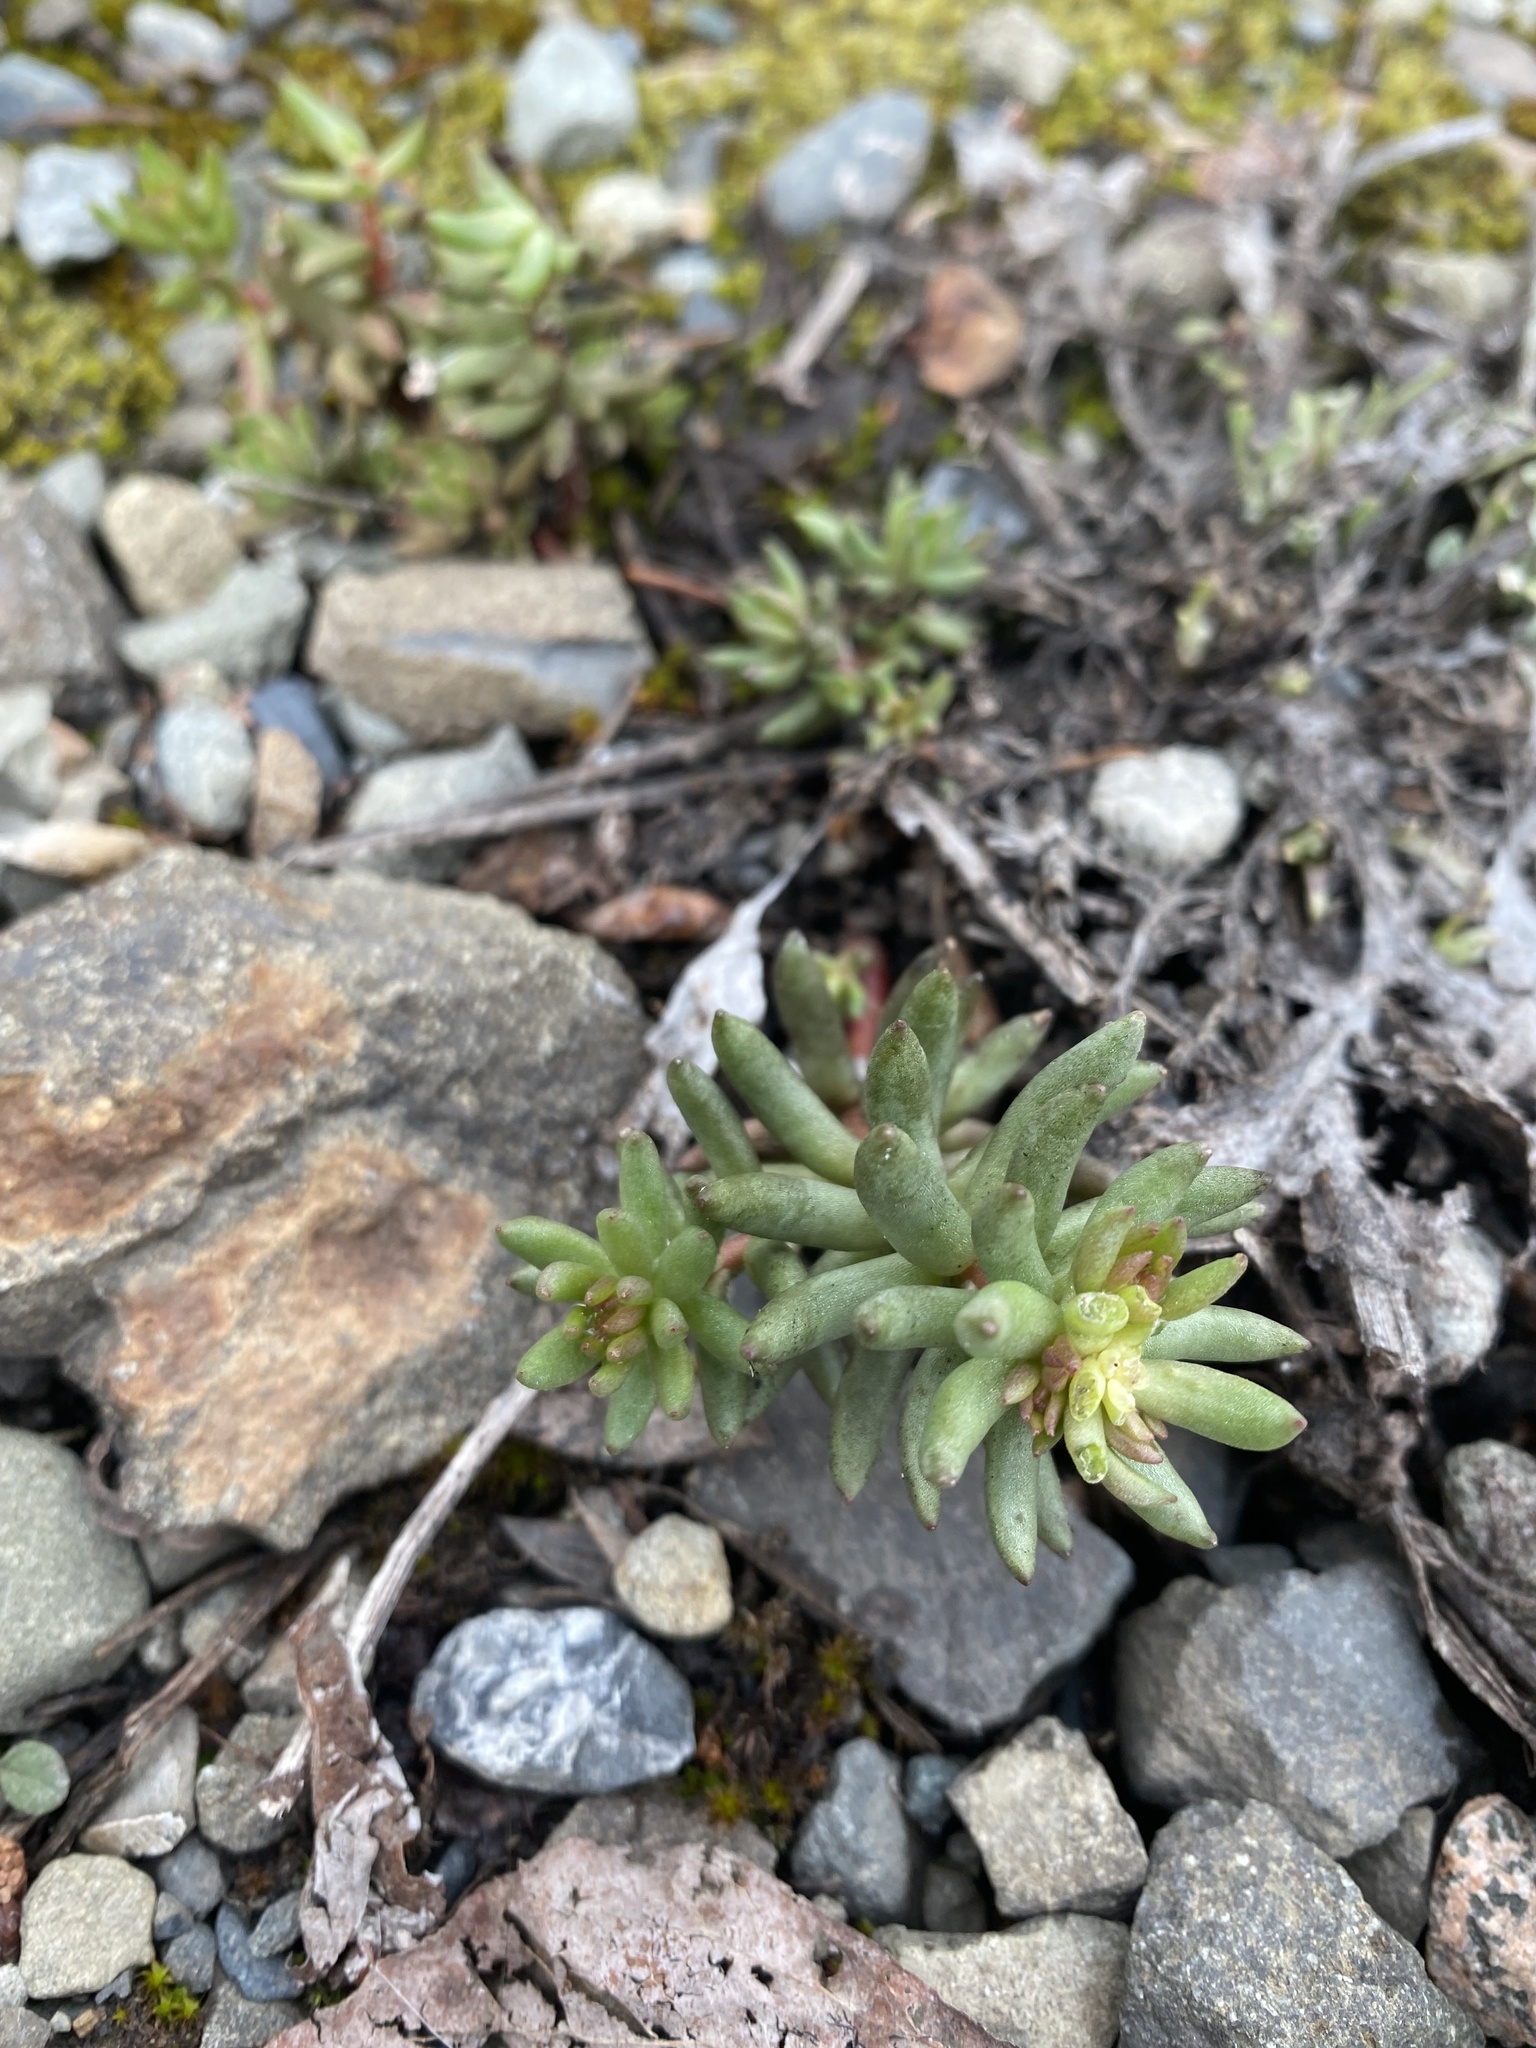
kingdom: Plantae
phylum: Tracheophyta
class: Magnoliopsida
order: Saxifragales
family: Crassulaceae
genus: Sedum
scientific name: Sedum lanceolatum
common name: Common stonecrop
